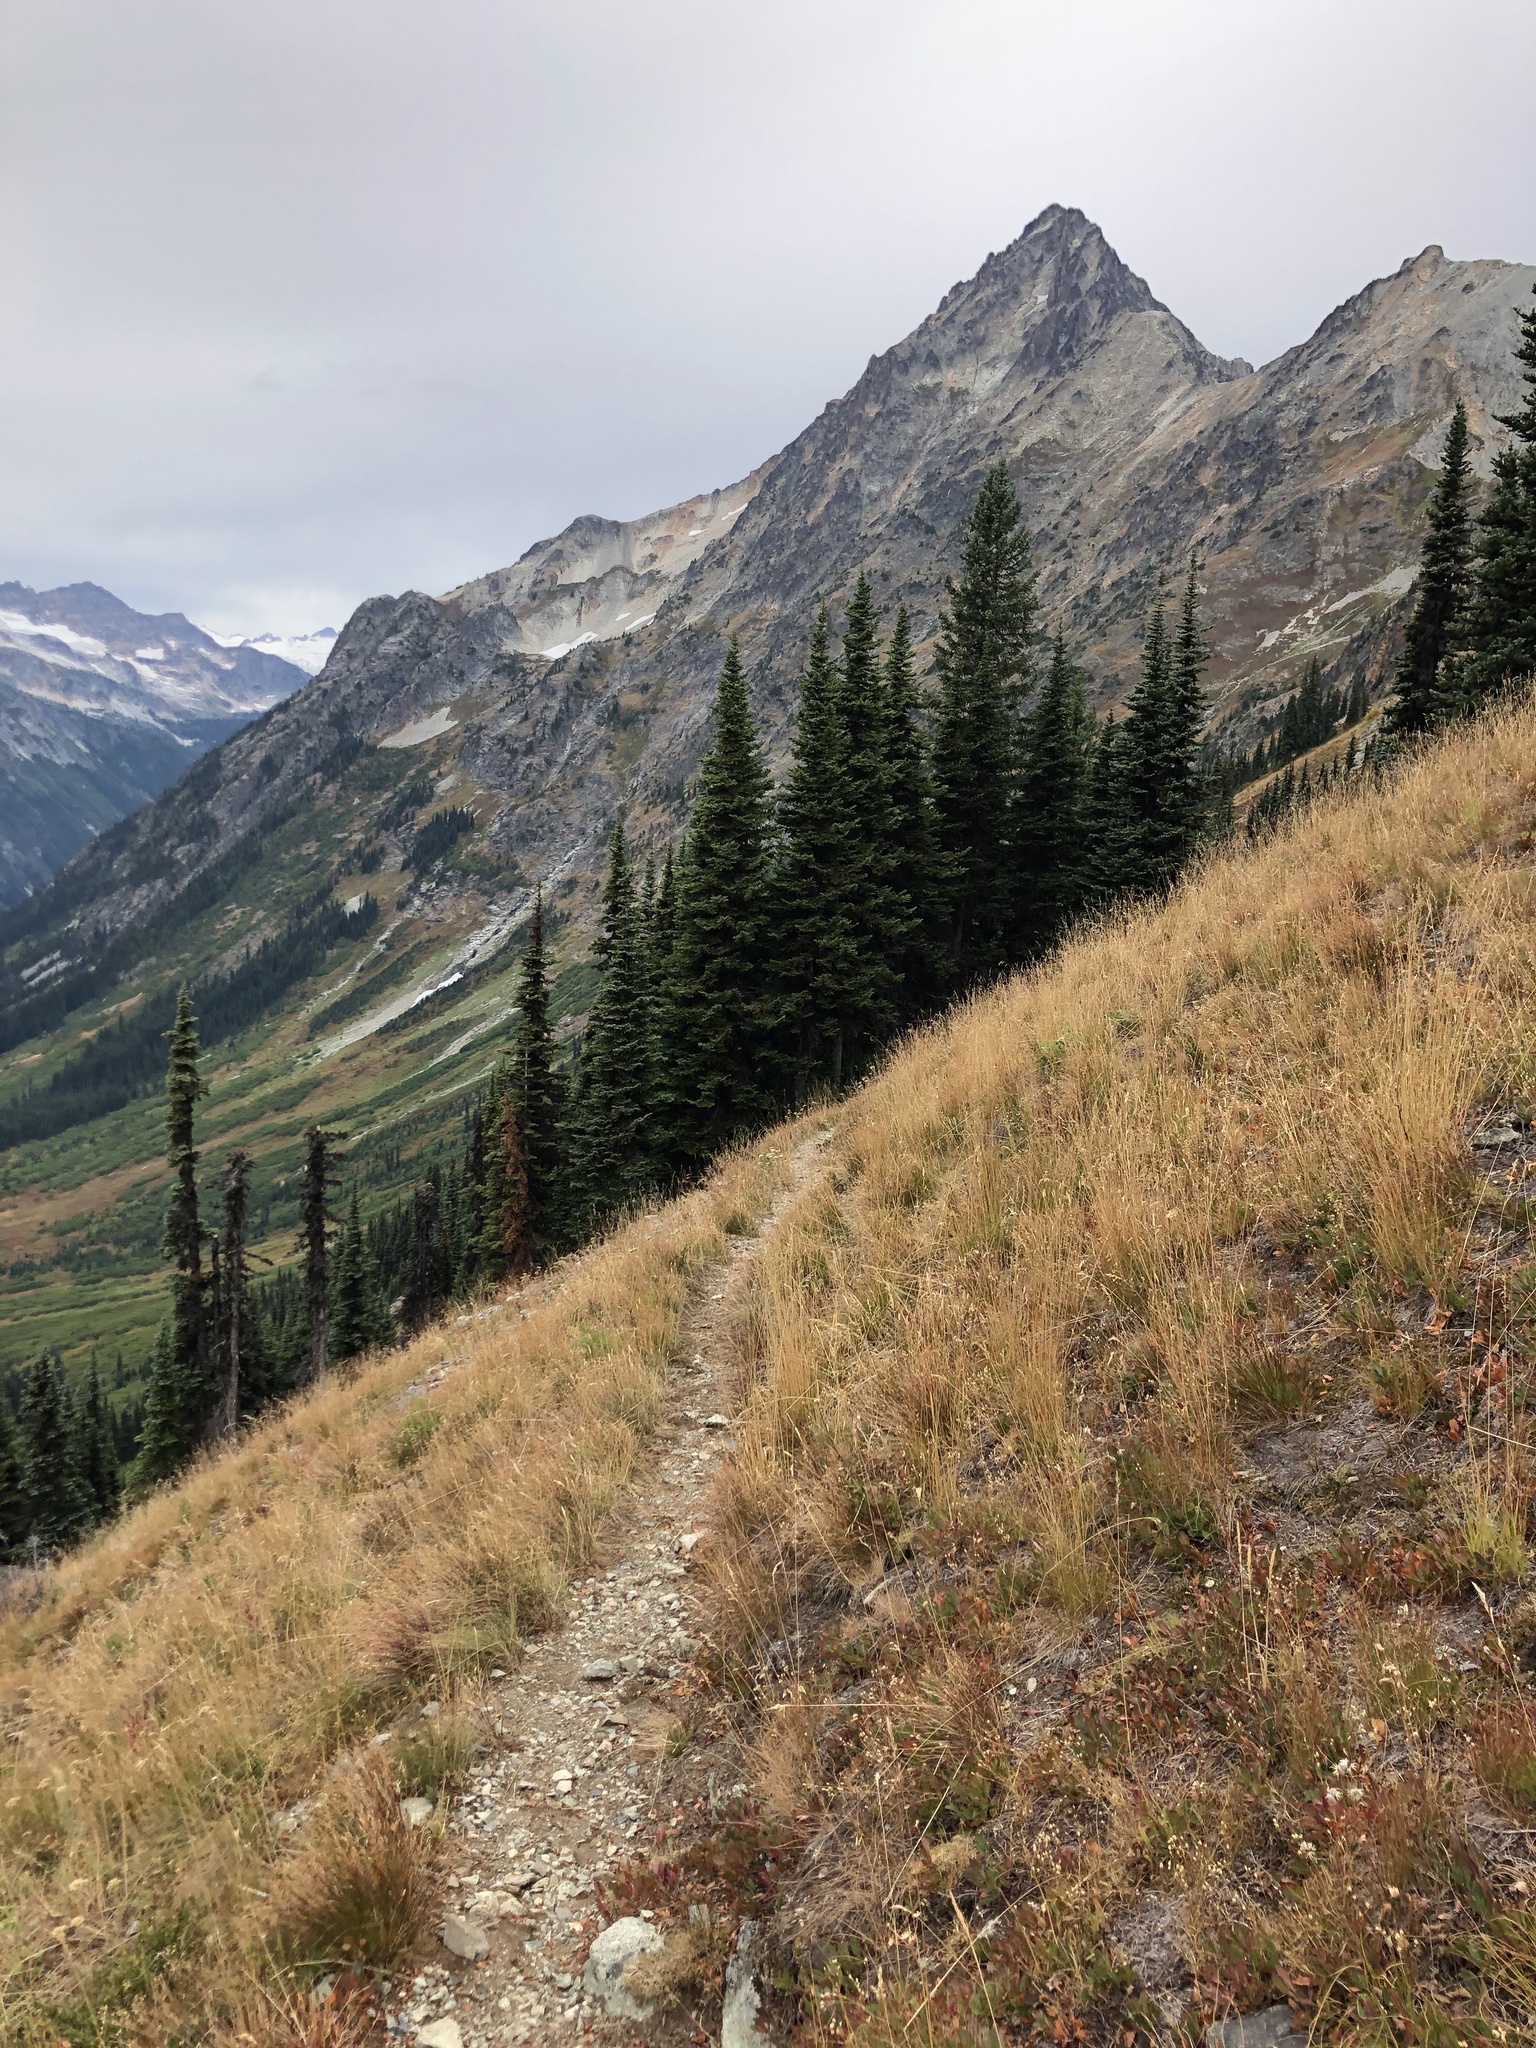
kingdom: Plantae
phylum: Tracheophyta
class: Pinopsida
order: Pinales
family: Pinaceae
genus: Abies
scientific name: Abies lasiocarpa
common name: Subalpine fir
